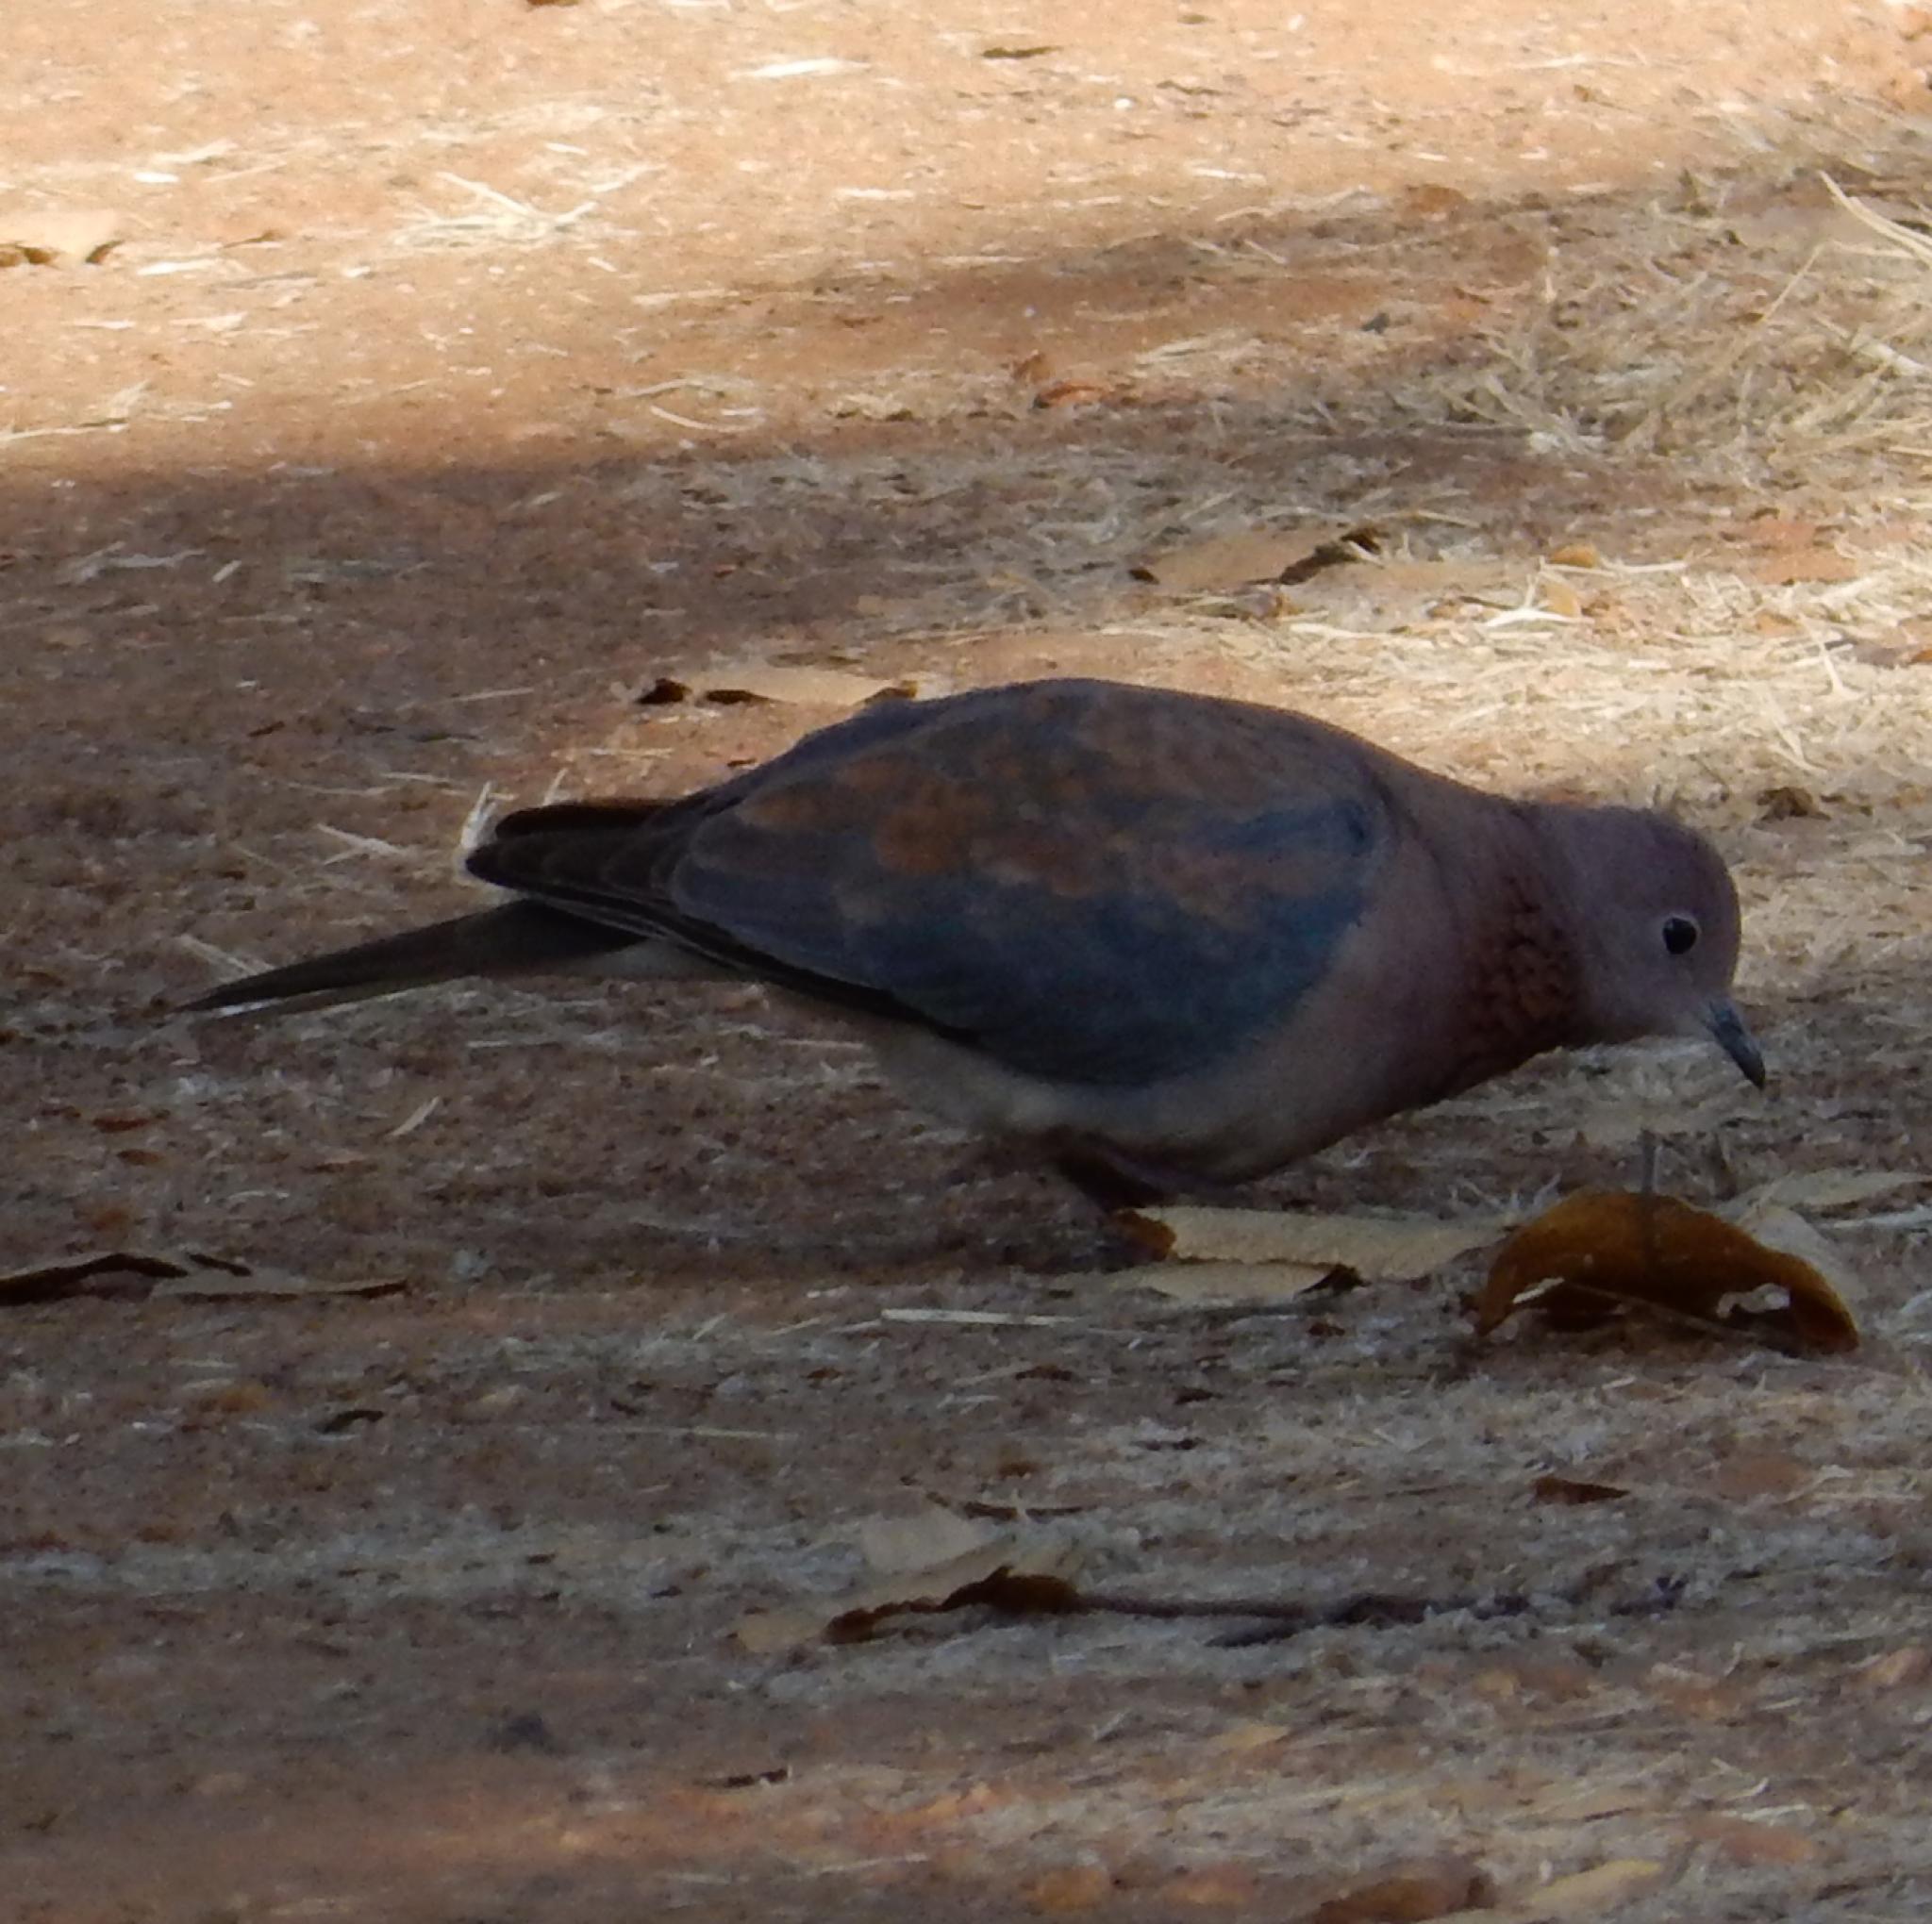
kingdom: Animalia
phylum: Chordata
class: Aves
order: Columbiformes
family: Columbidae
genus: Spilopelia
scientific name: Spilopelia senegalensis
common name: Laughing dove
